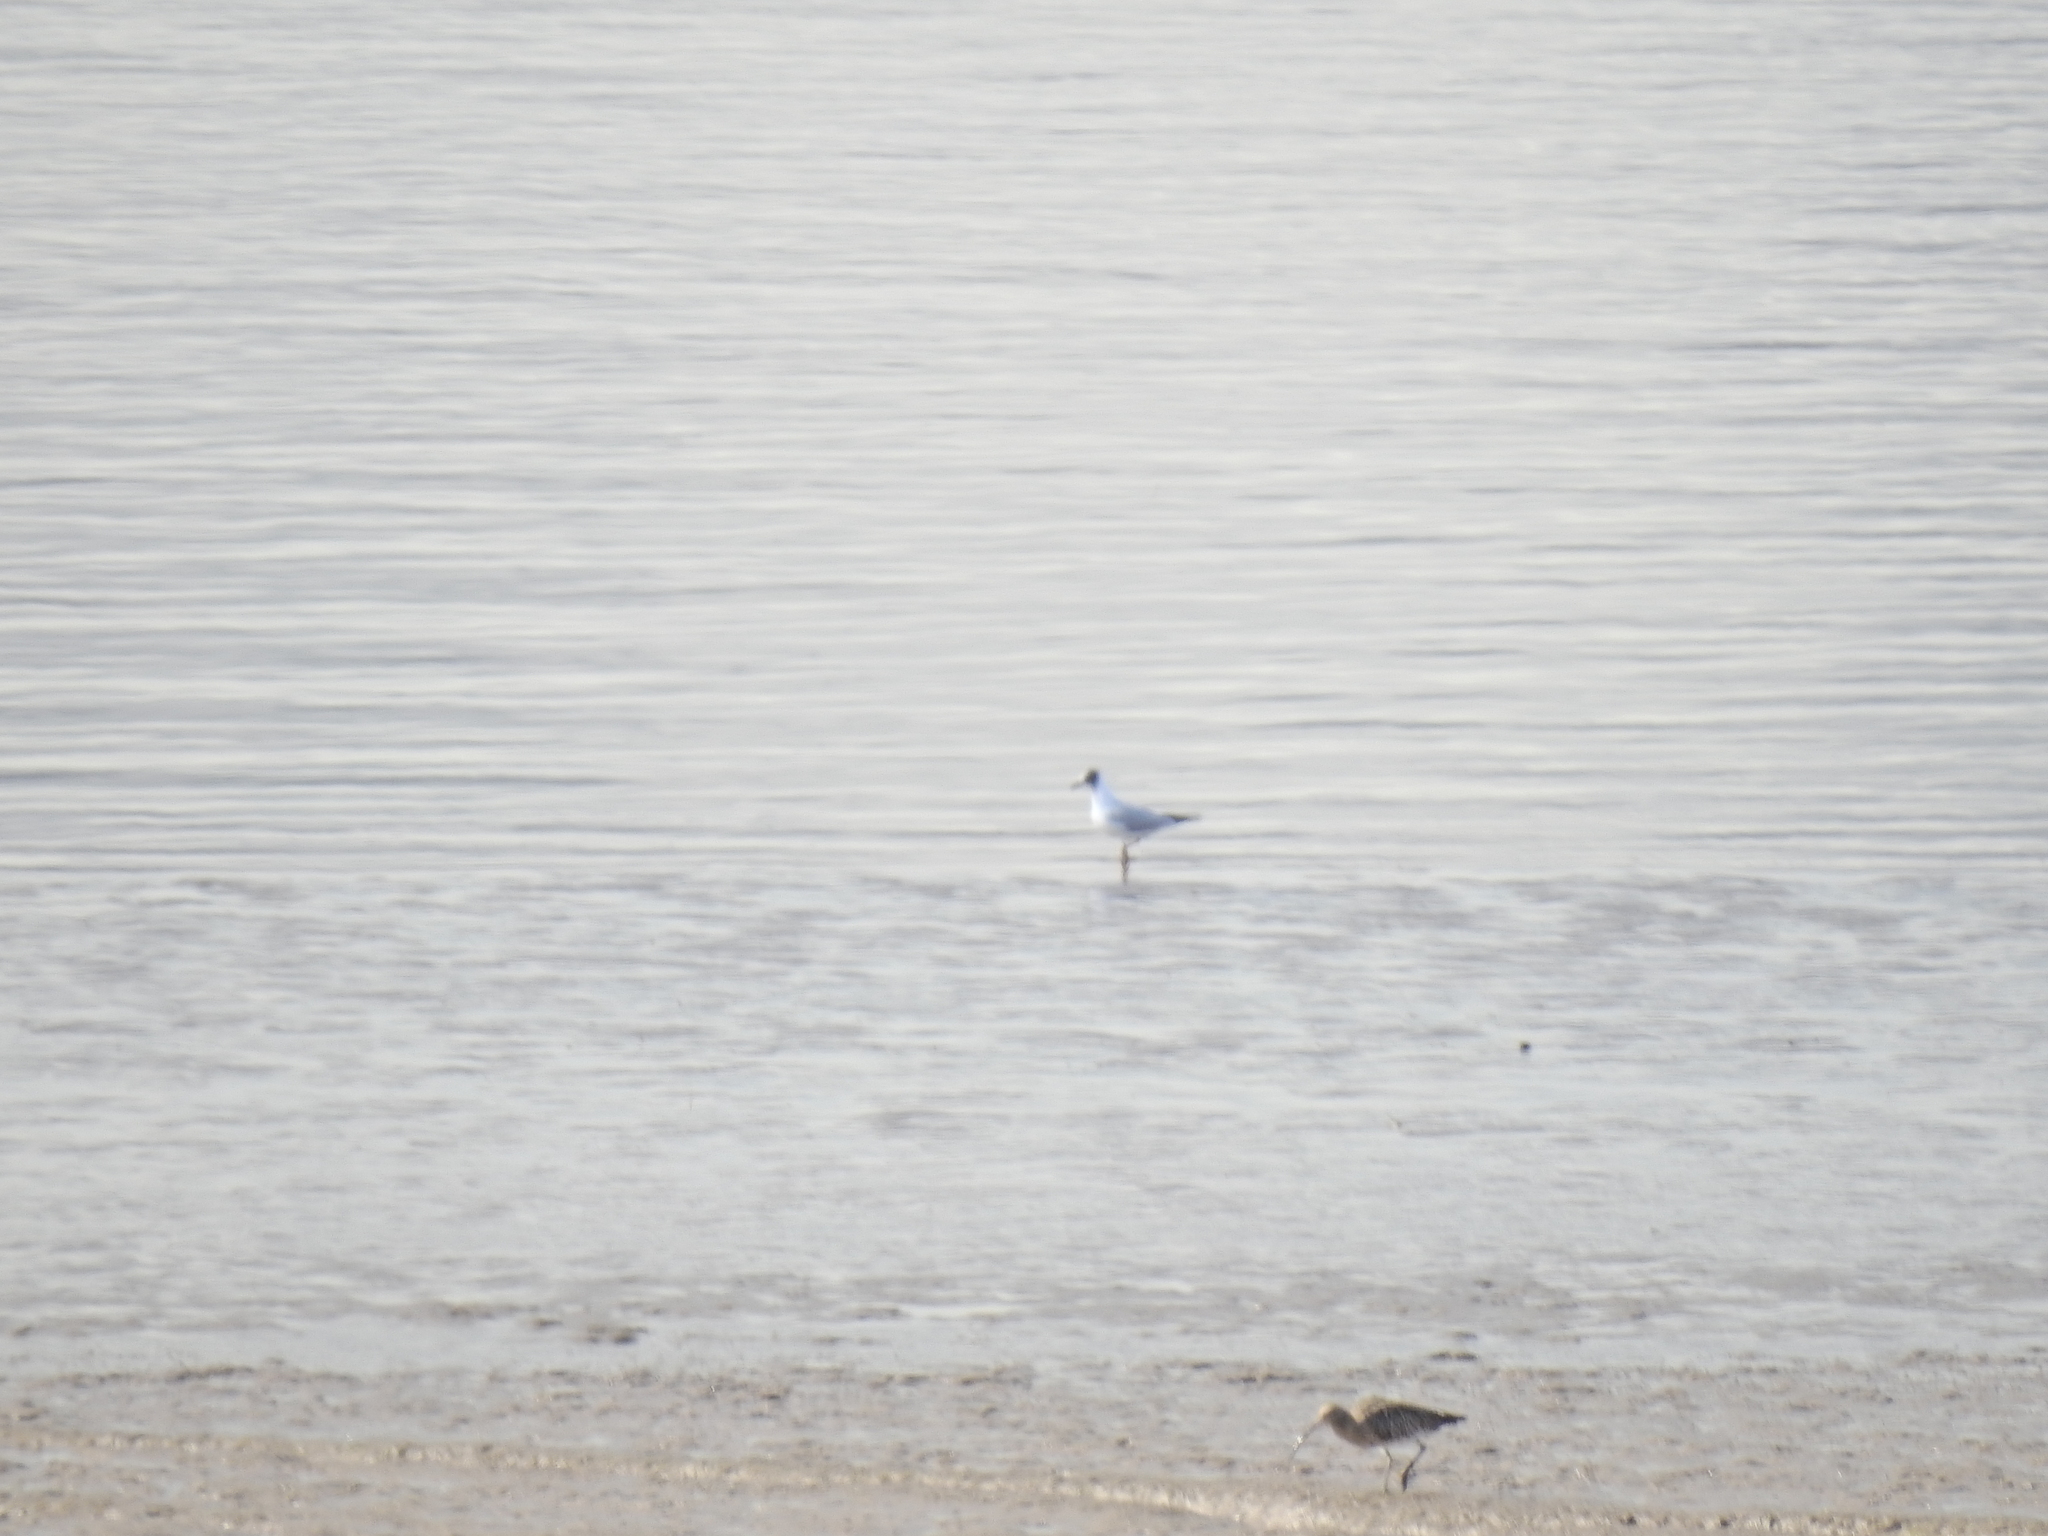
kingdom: Animalia
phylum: Chordata
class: Aves
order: Charadriiformes
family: Laridae
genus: Chroicocephalus
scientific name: Chroicocephalus ridibundus
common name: Black-headed gull
